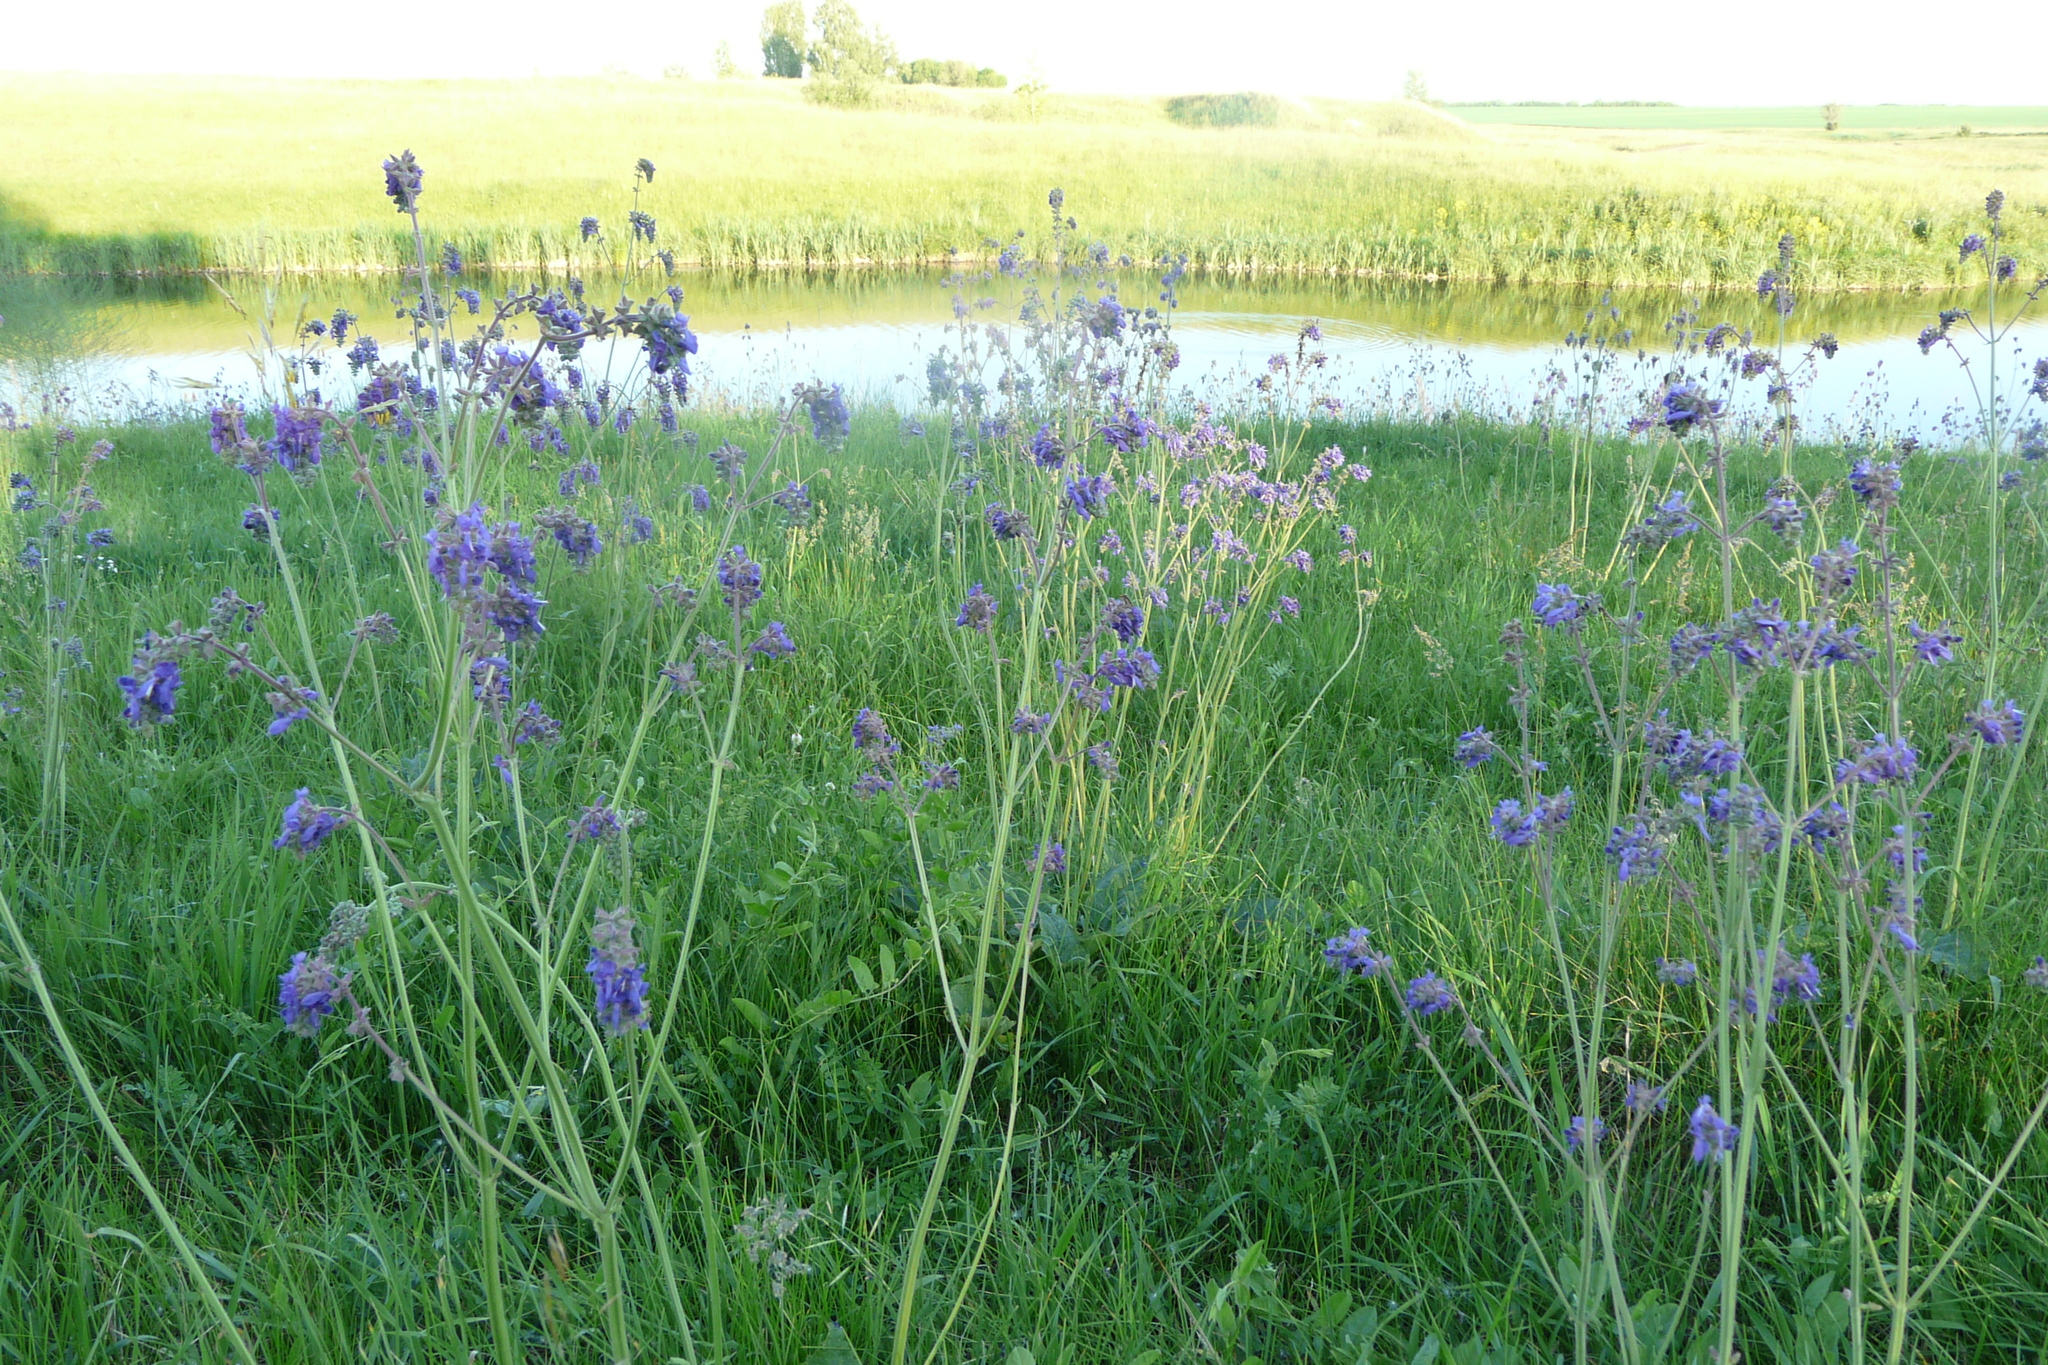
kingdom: Plantae
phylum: Tracheophyta
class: Magnoliopsida
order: Lamiales
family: Lamiaceae
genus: Salvia
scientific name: Salvia nutans
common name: Nodding sage
